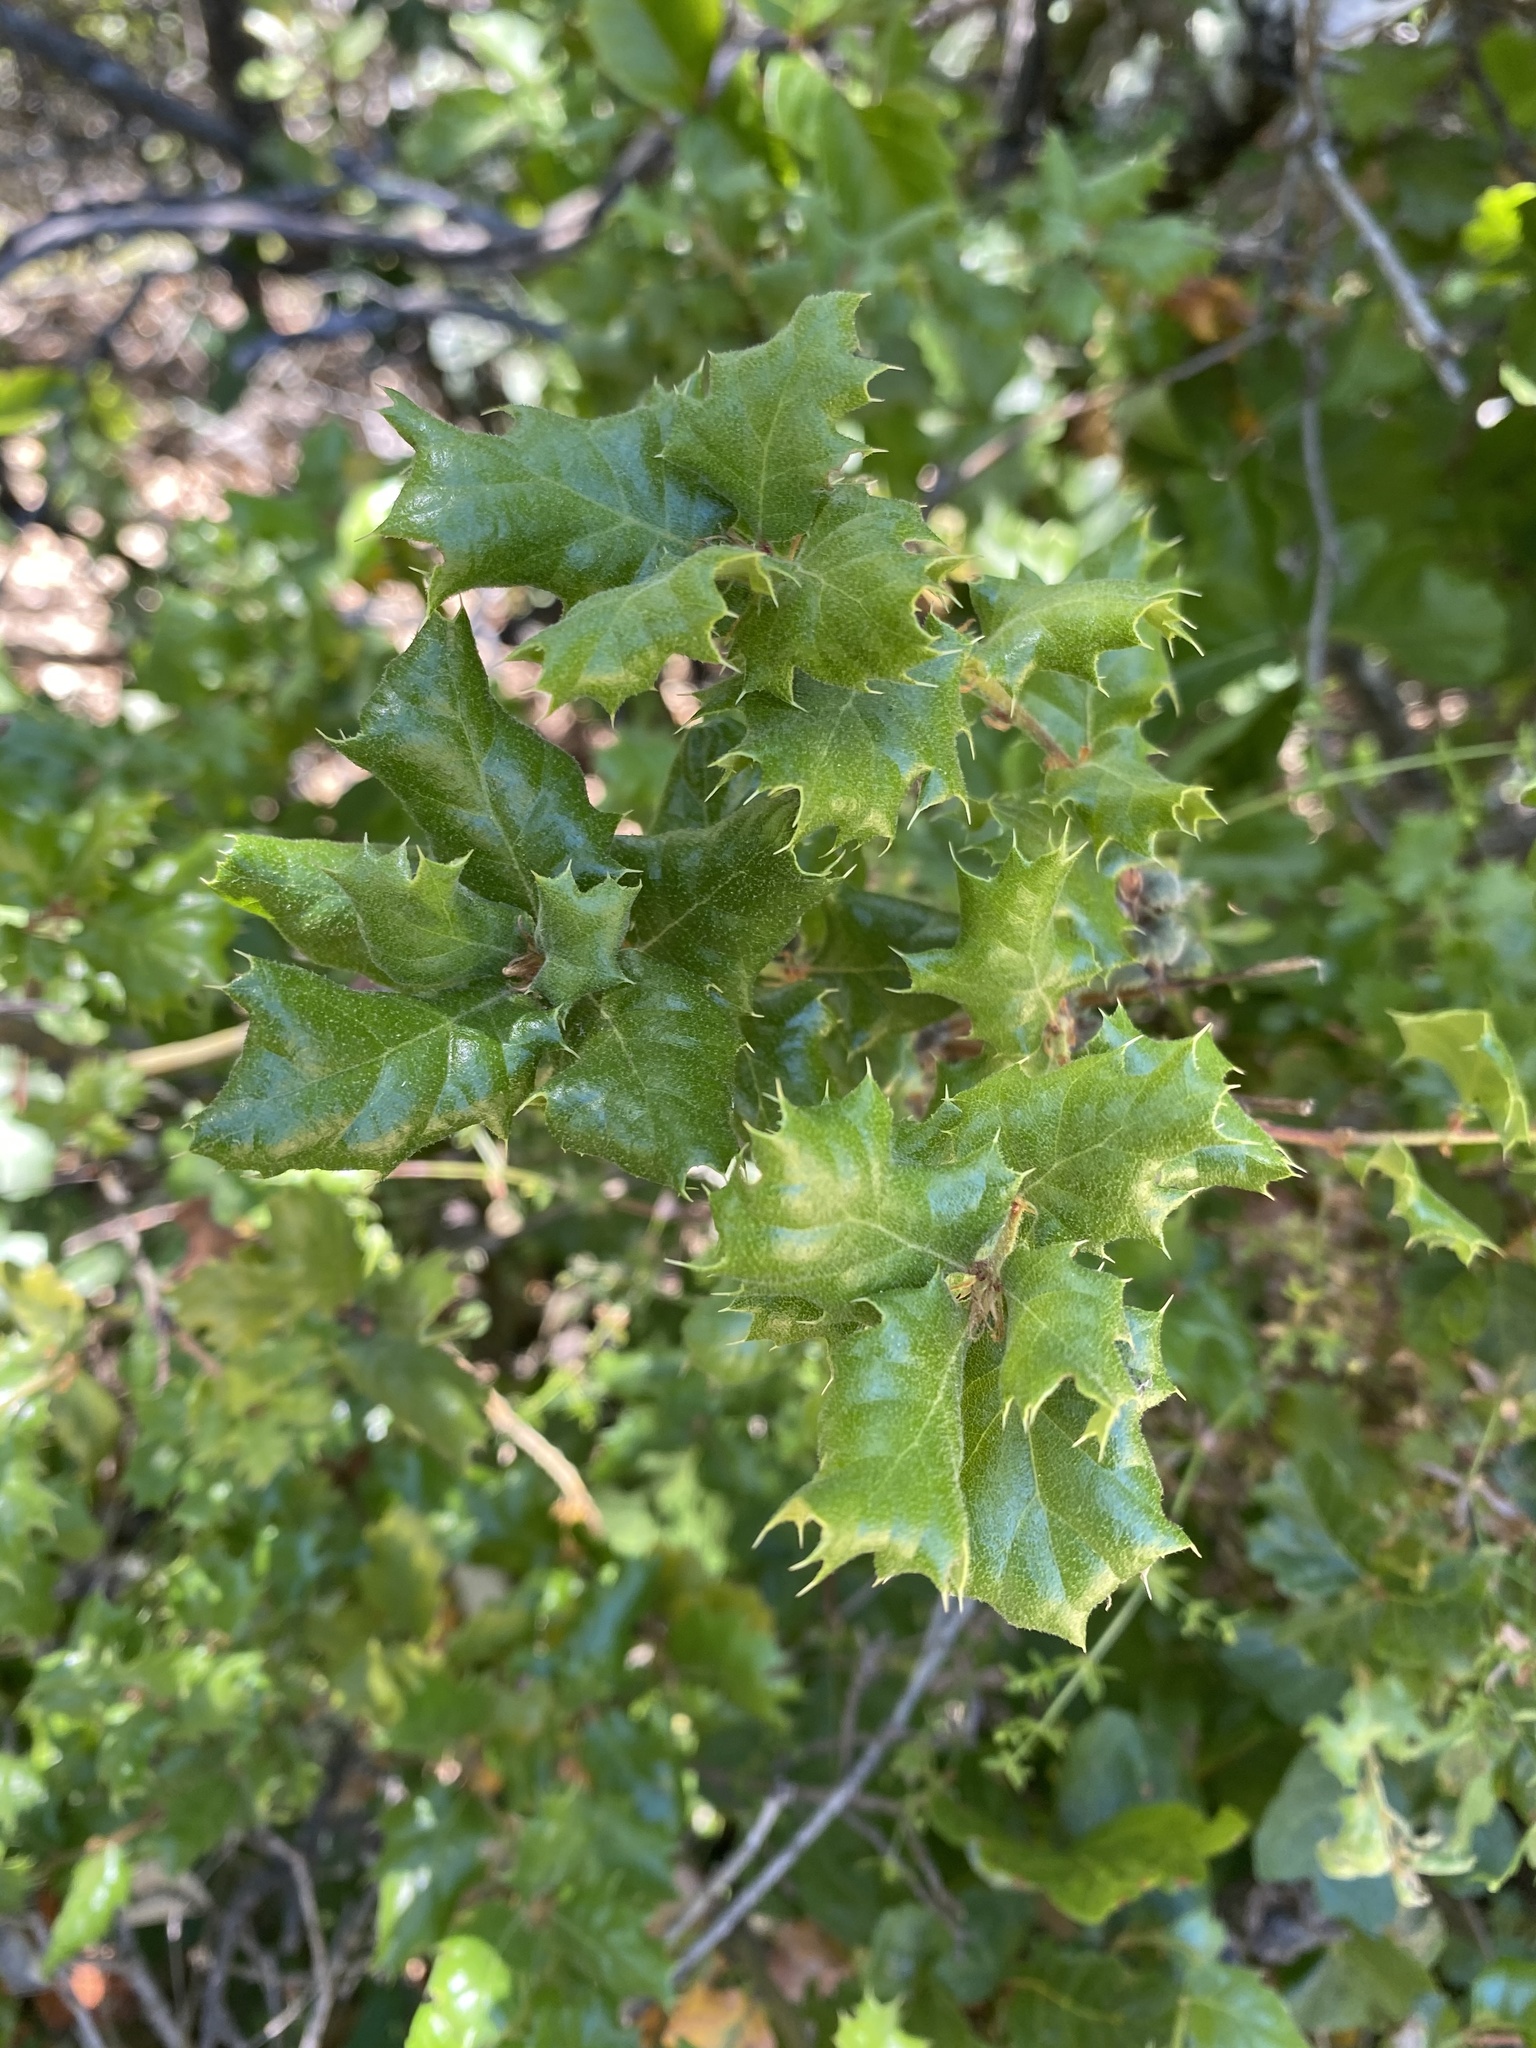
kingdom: Plantae
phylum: Tracheophyta
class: Magnoliopsida
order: Fagales
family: Fagaceae
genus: Quercus
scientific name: Quercus durata
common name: Leather oak
